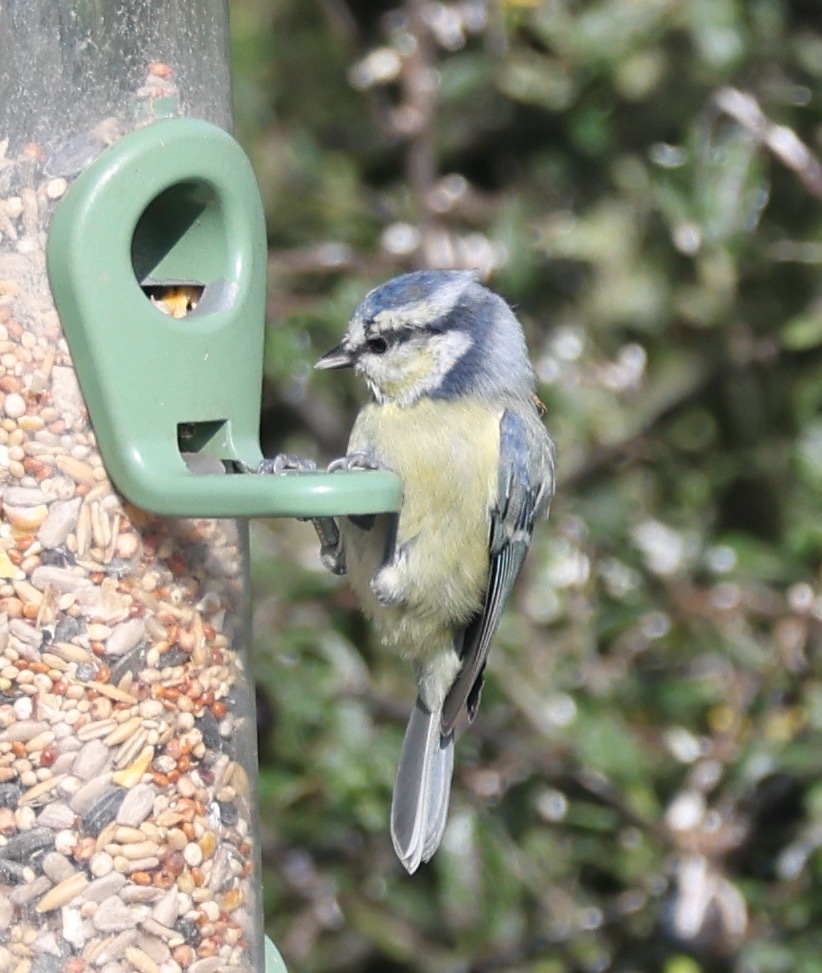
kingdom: Animalia
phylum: Chordata
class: Aves
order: Passeriformes
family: Paridae
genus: Cyanistes
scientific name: Cyanistes caeruleus
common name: Eurasian blue tit
